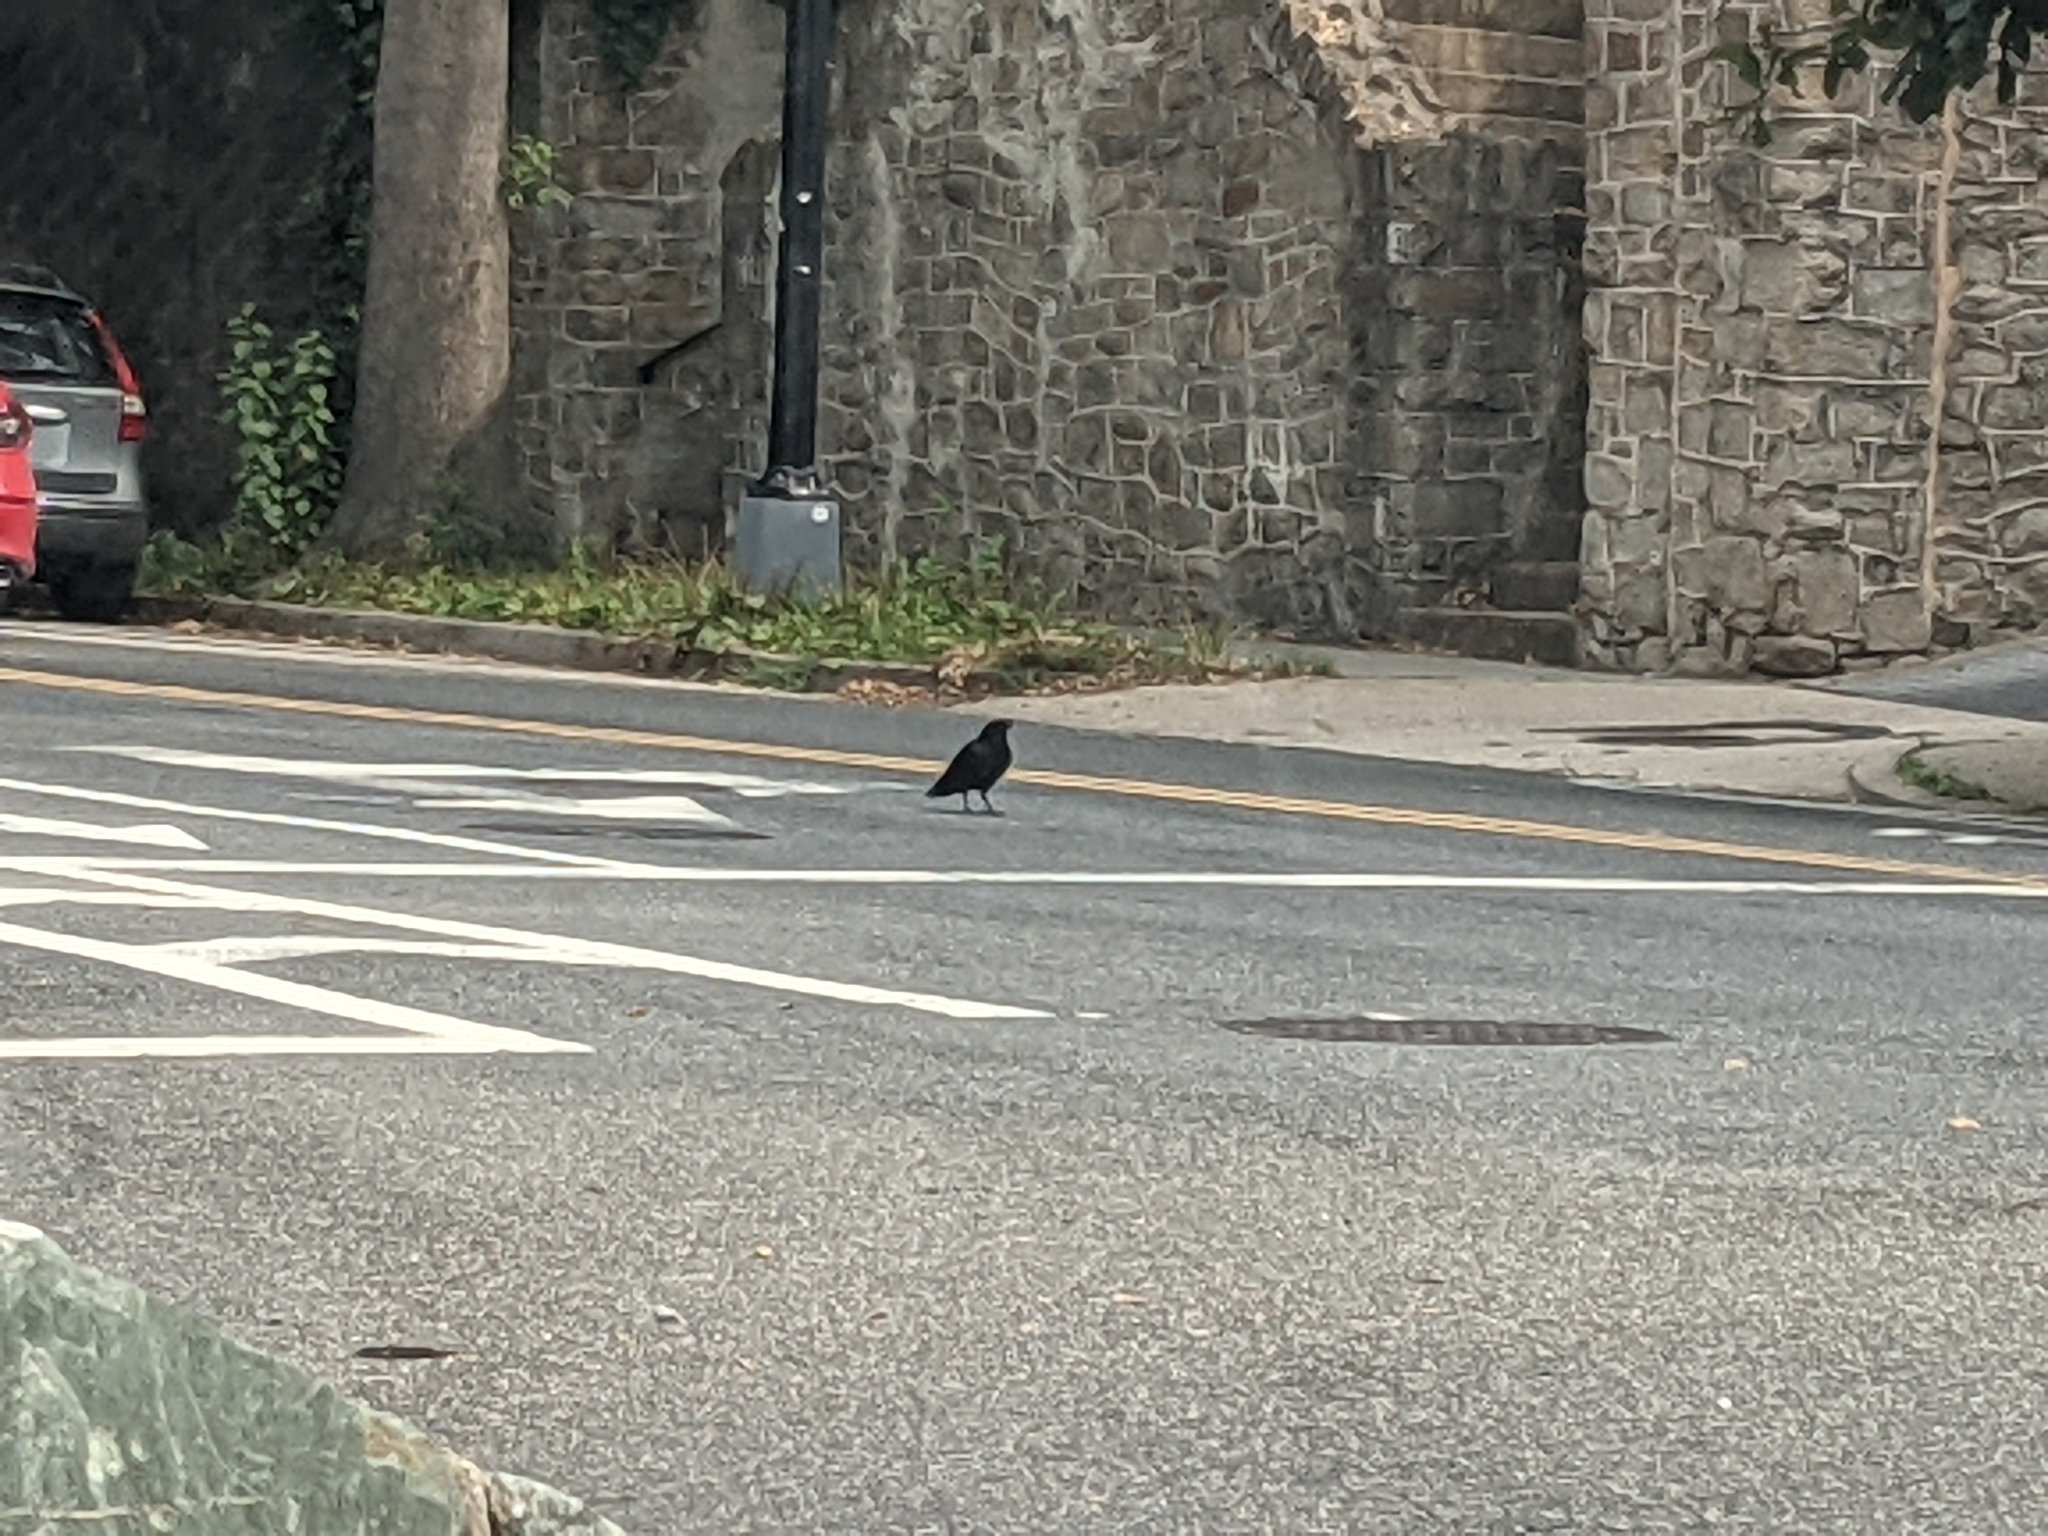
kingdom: Animalia
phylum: Chordata
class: Aves
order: Passeriformes
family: Corvidae
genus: Corvus
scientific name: Corvus
